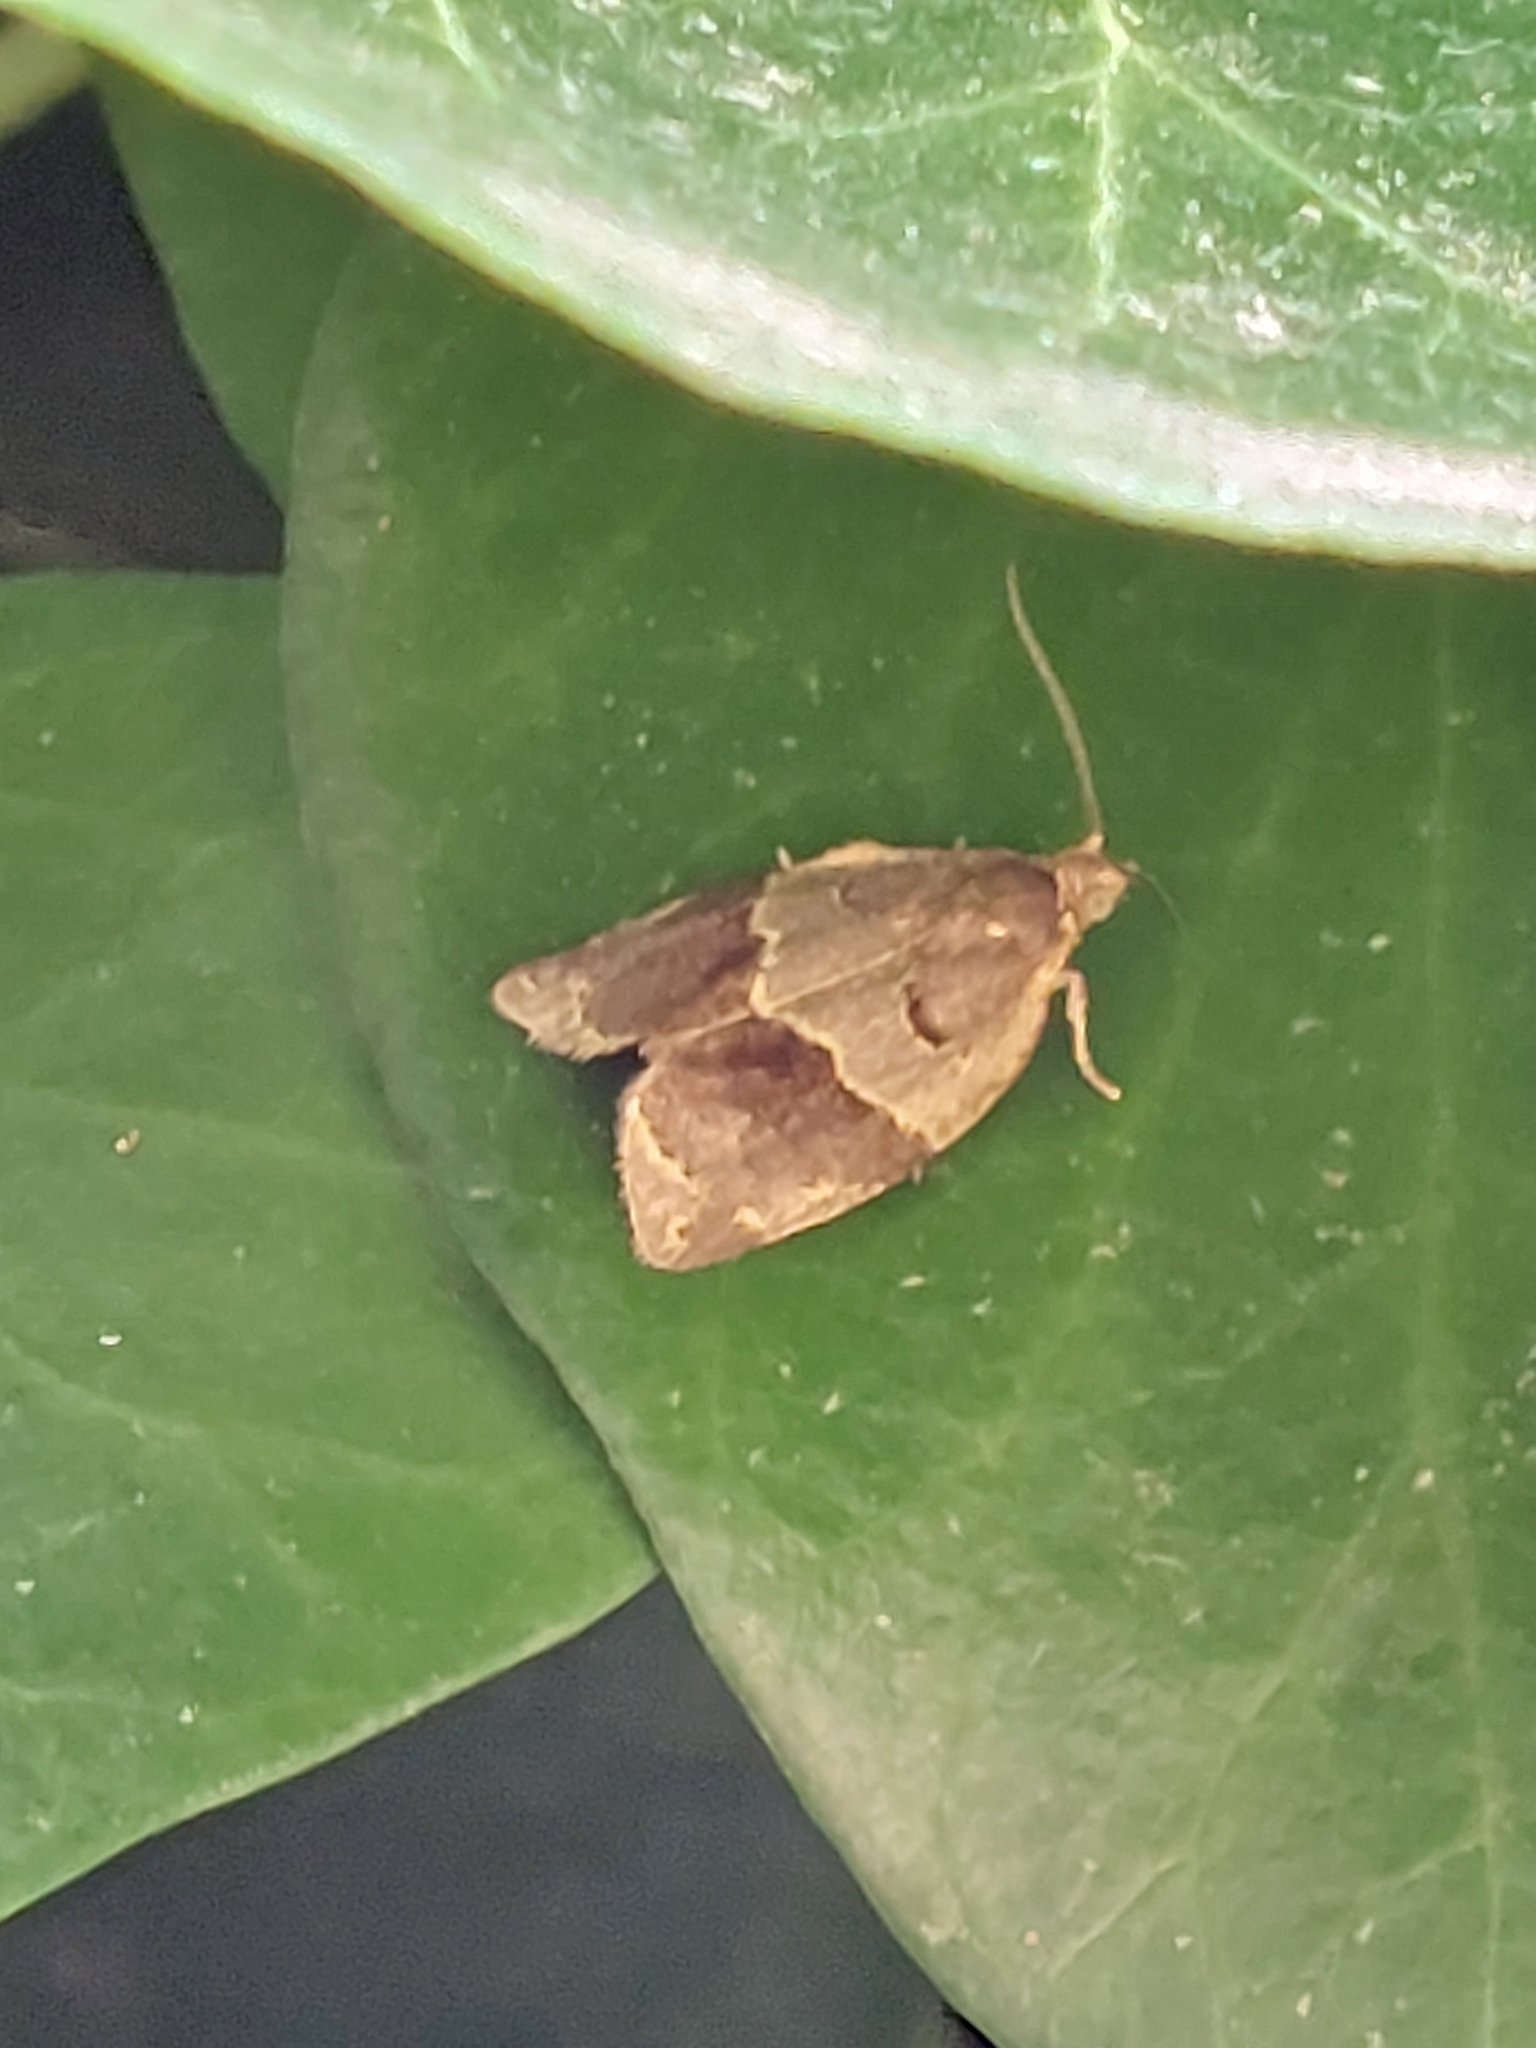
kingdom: Animalia
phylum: Arthropoda
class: Insecta
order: Lepidoptera
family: Tortricidae
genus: Clepsis
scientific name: Clepsis dumicolana
